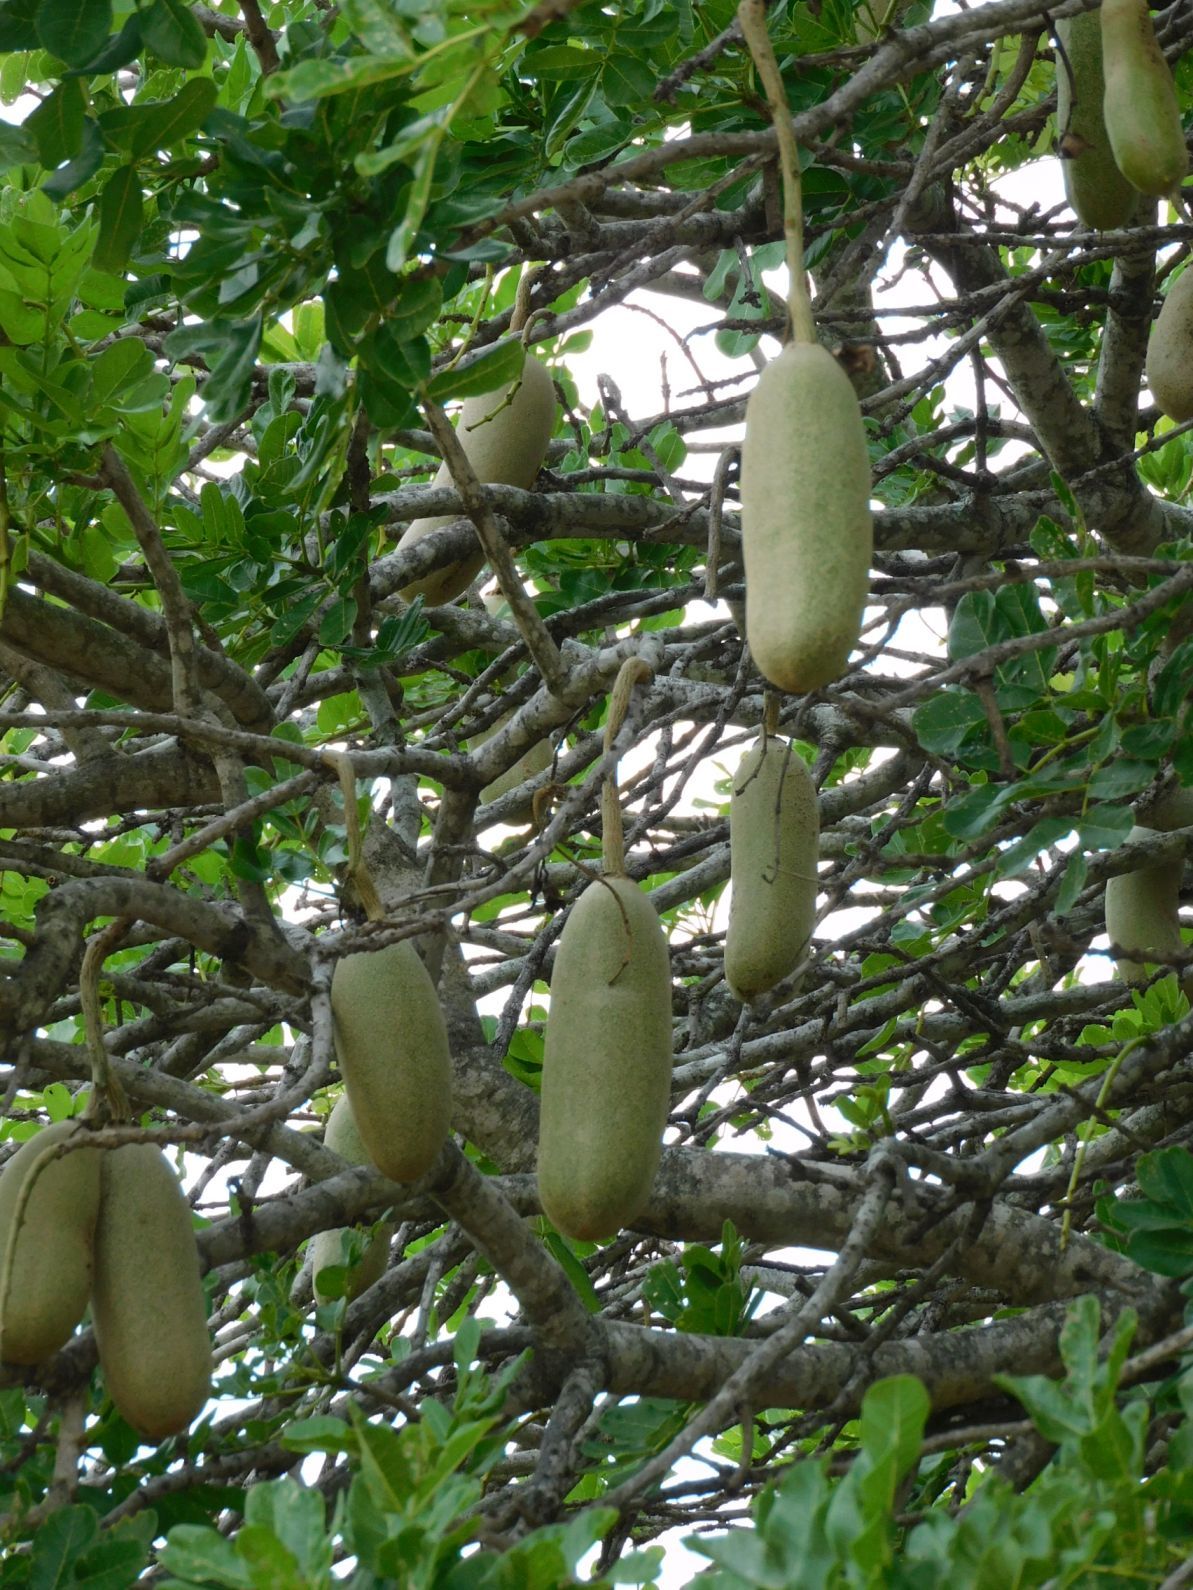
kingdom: Plantae
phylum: Tracheophyta
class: Magnoliopsida
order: Lamiales
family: Bignoniaceae
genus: Kigelia
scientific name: Kigelia africana
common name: Sausage tree
